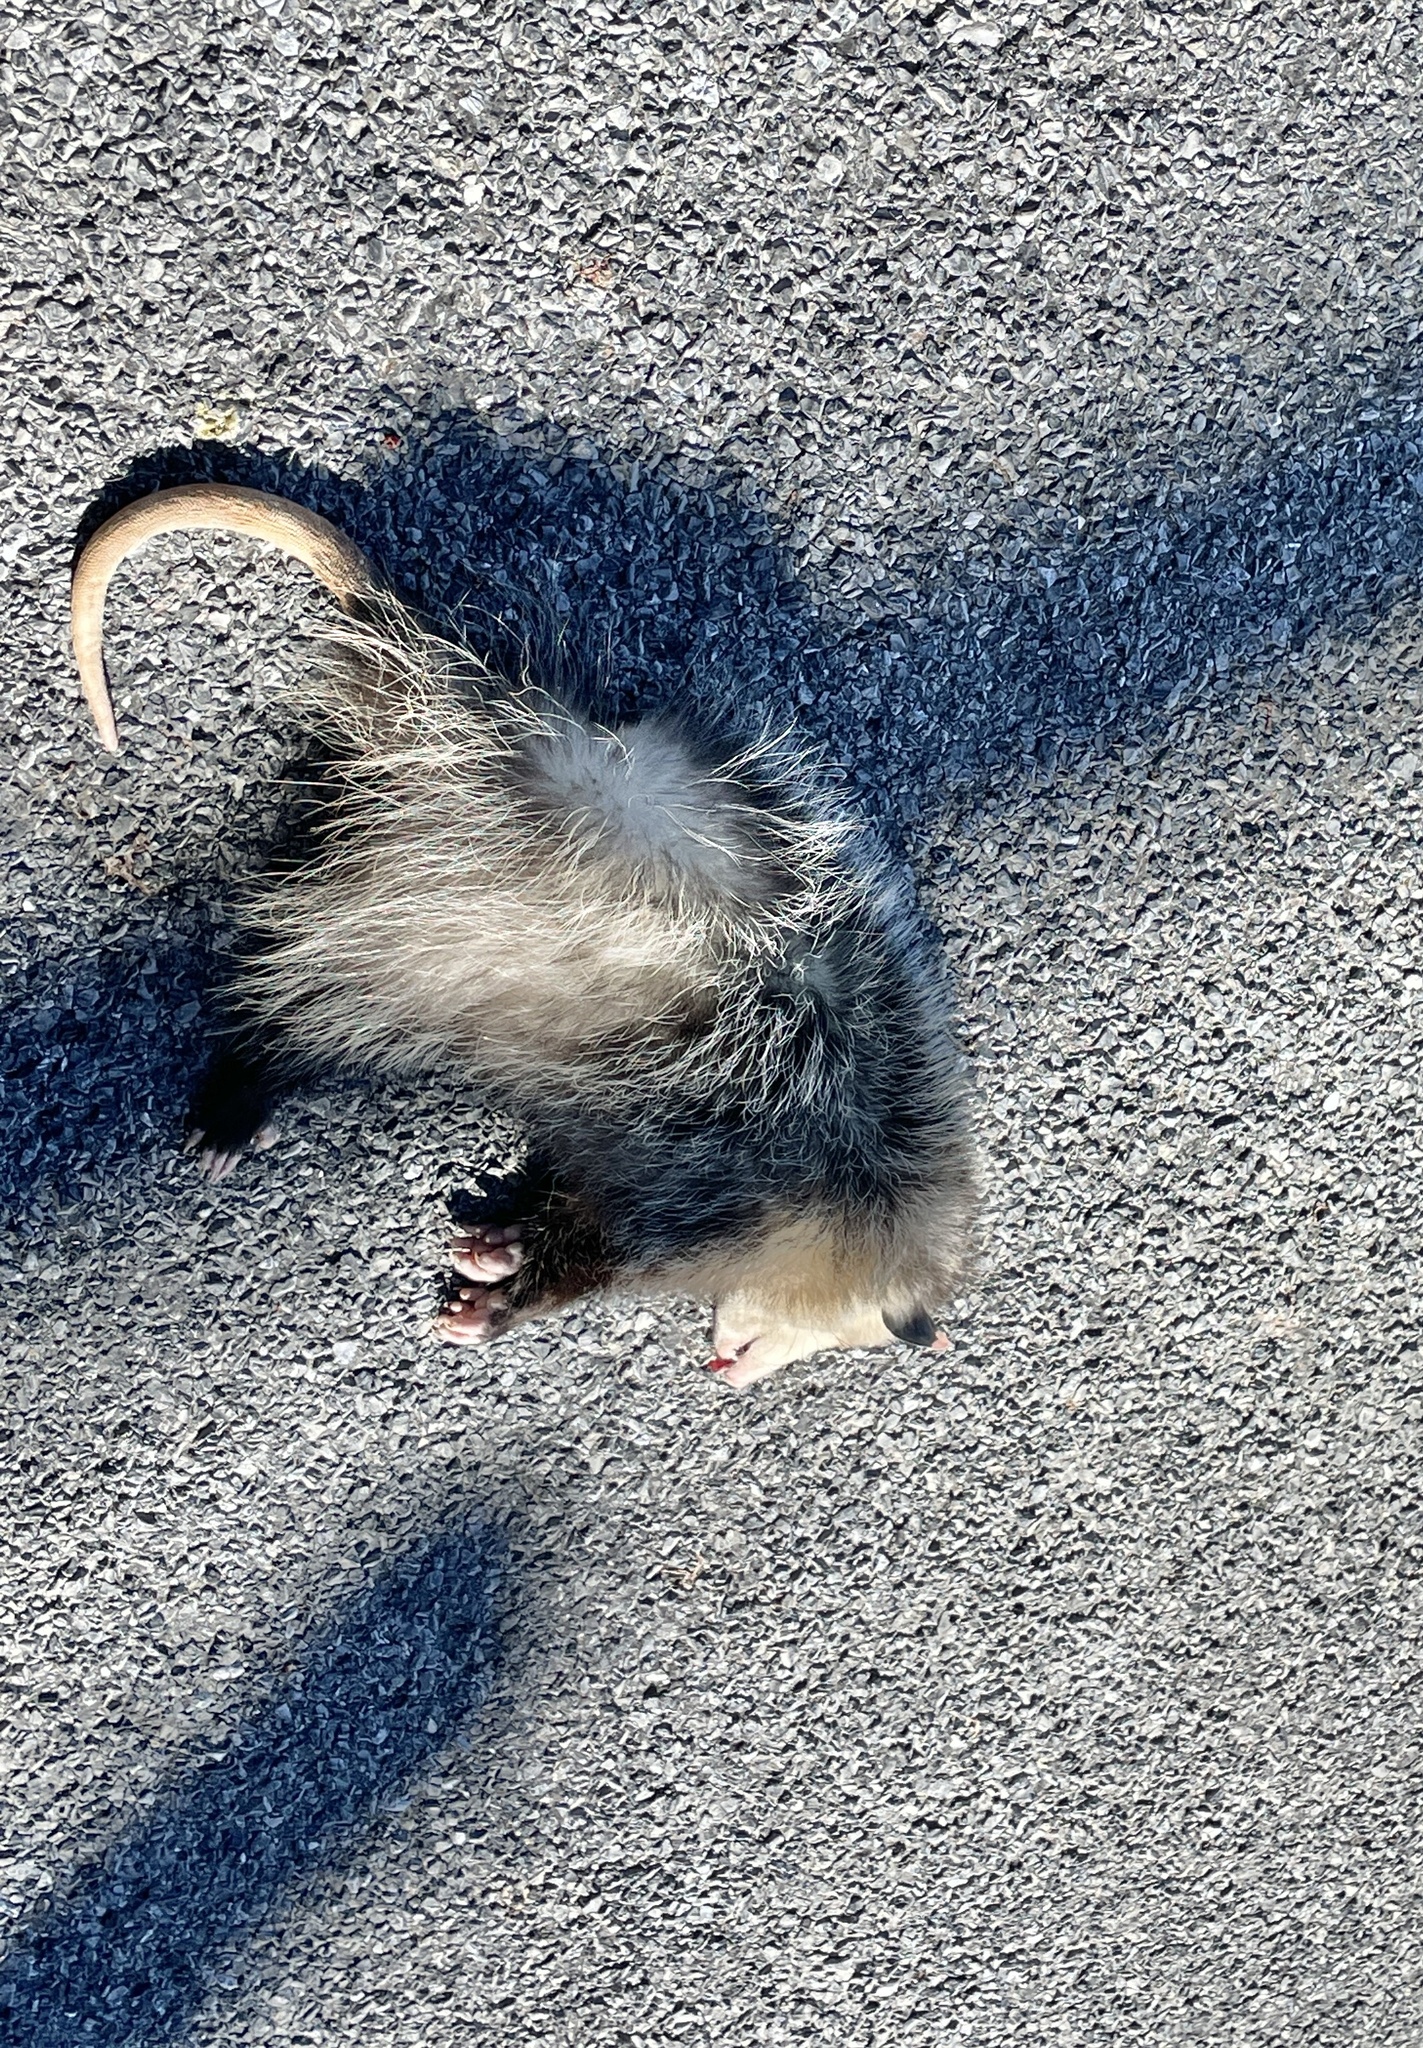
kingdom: Animalia
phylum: Chordata
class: Mammalia
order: Didelphimorphia
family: Didelphidae
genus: Didelphis
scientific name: Didelphis virginiana
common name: Virginia opossum
